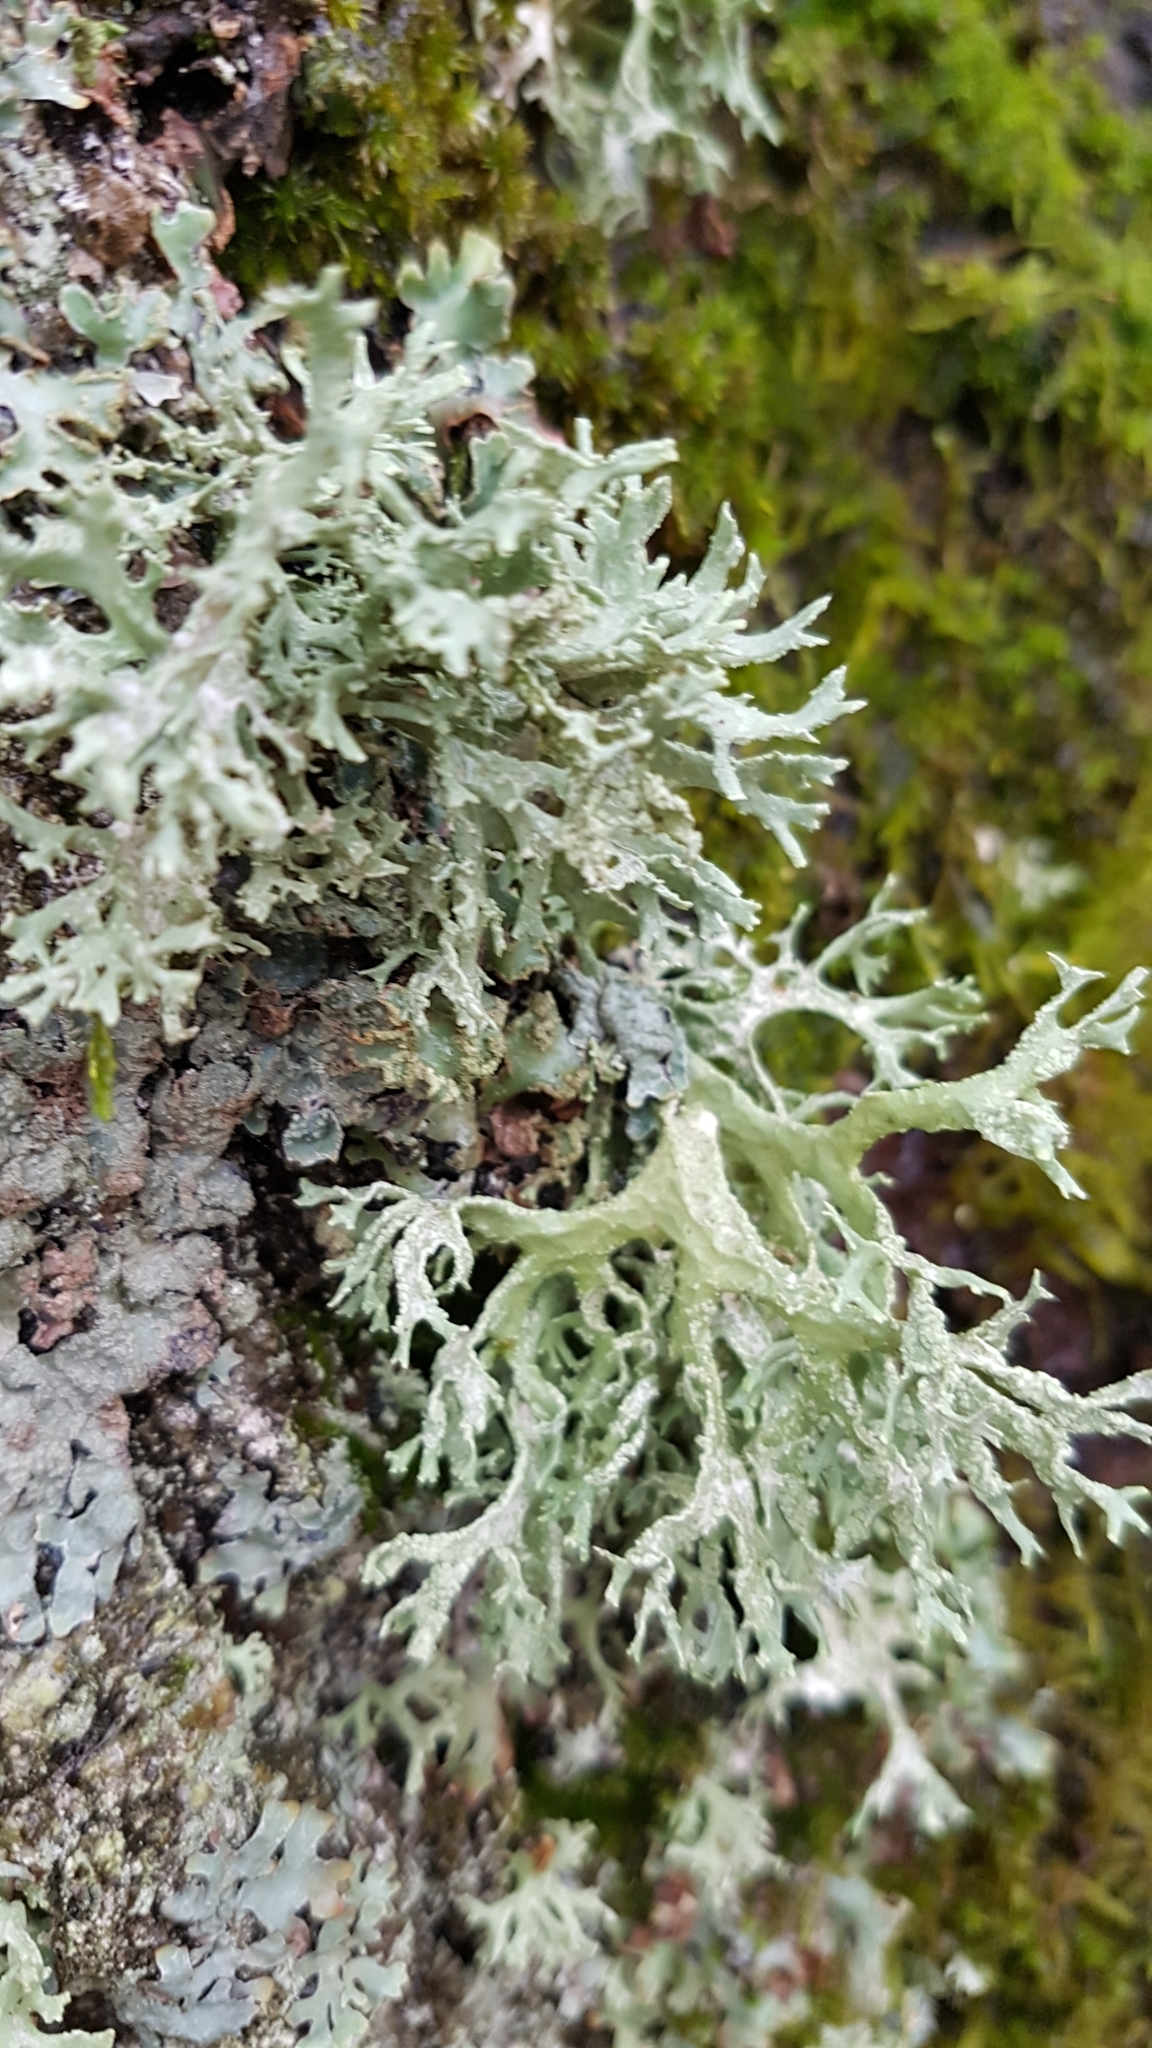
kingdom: Fungi
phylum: Ascomycota
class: Lecanoromycetes
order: Lecanorales
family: Parmeliaceae
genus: Evernia
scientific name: Evernia prunastri
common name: Oak moss
